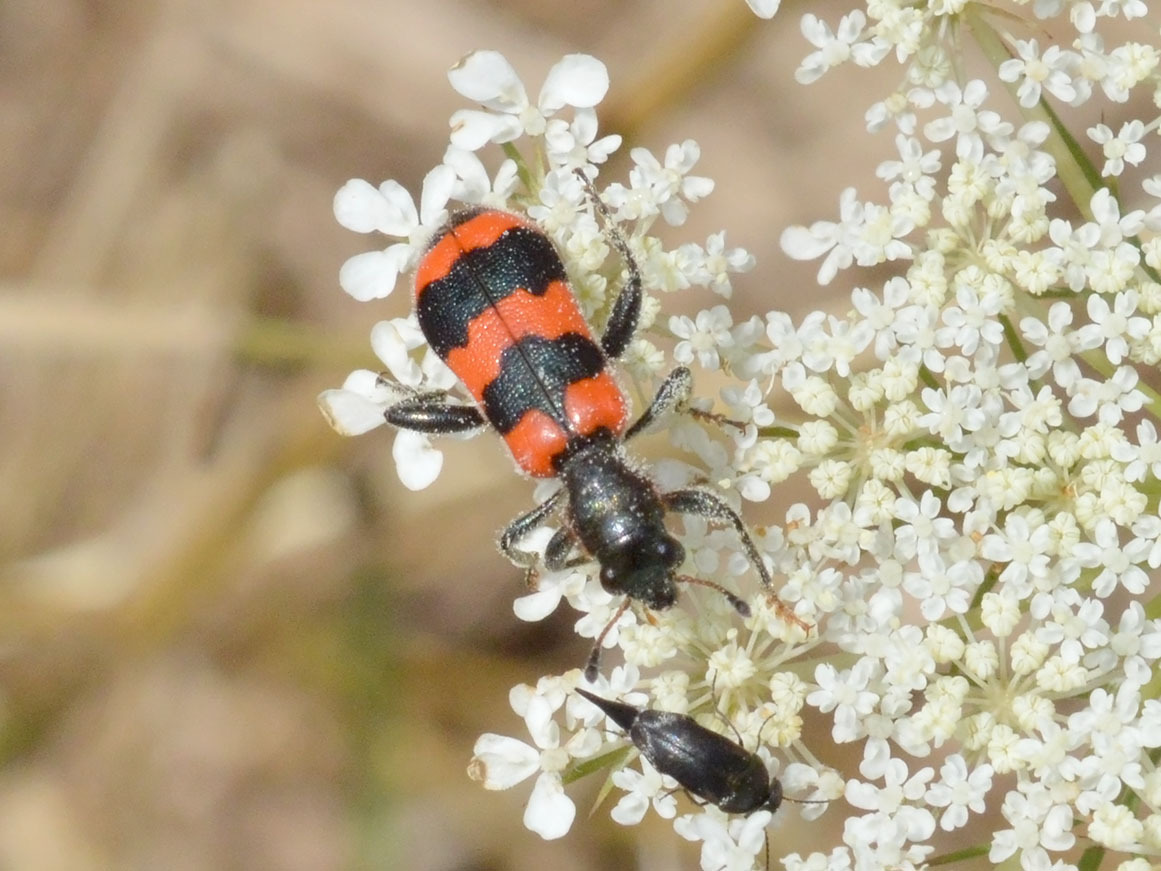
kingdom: Animalia
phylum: Arthropoda
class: Insecta
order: Coleoptera
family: Cleridae
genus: Trichodes
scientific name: Trichodes apiarius
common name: Bee-eating beetle
